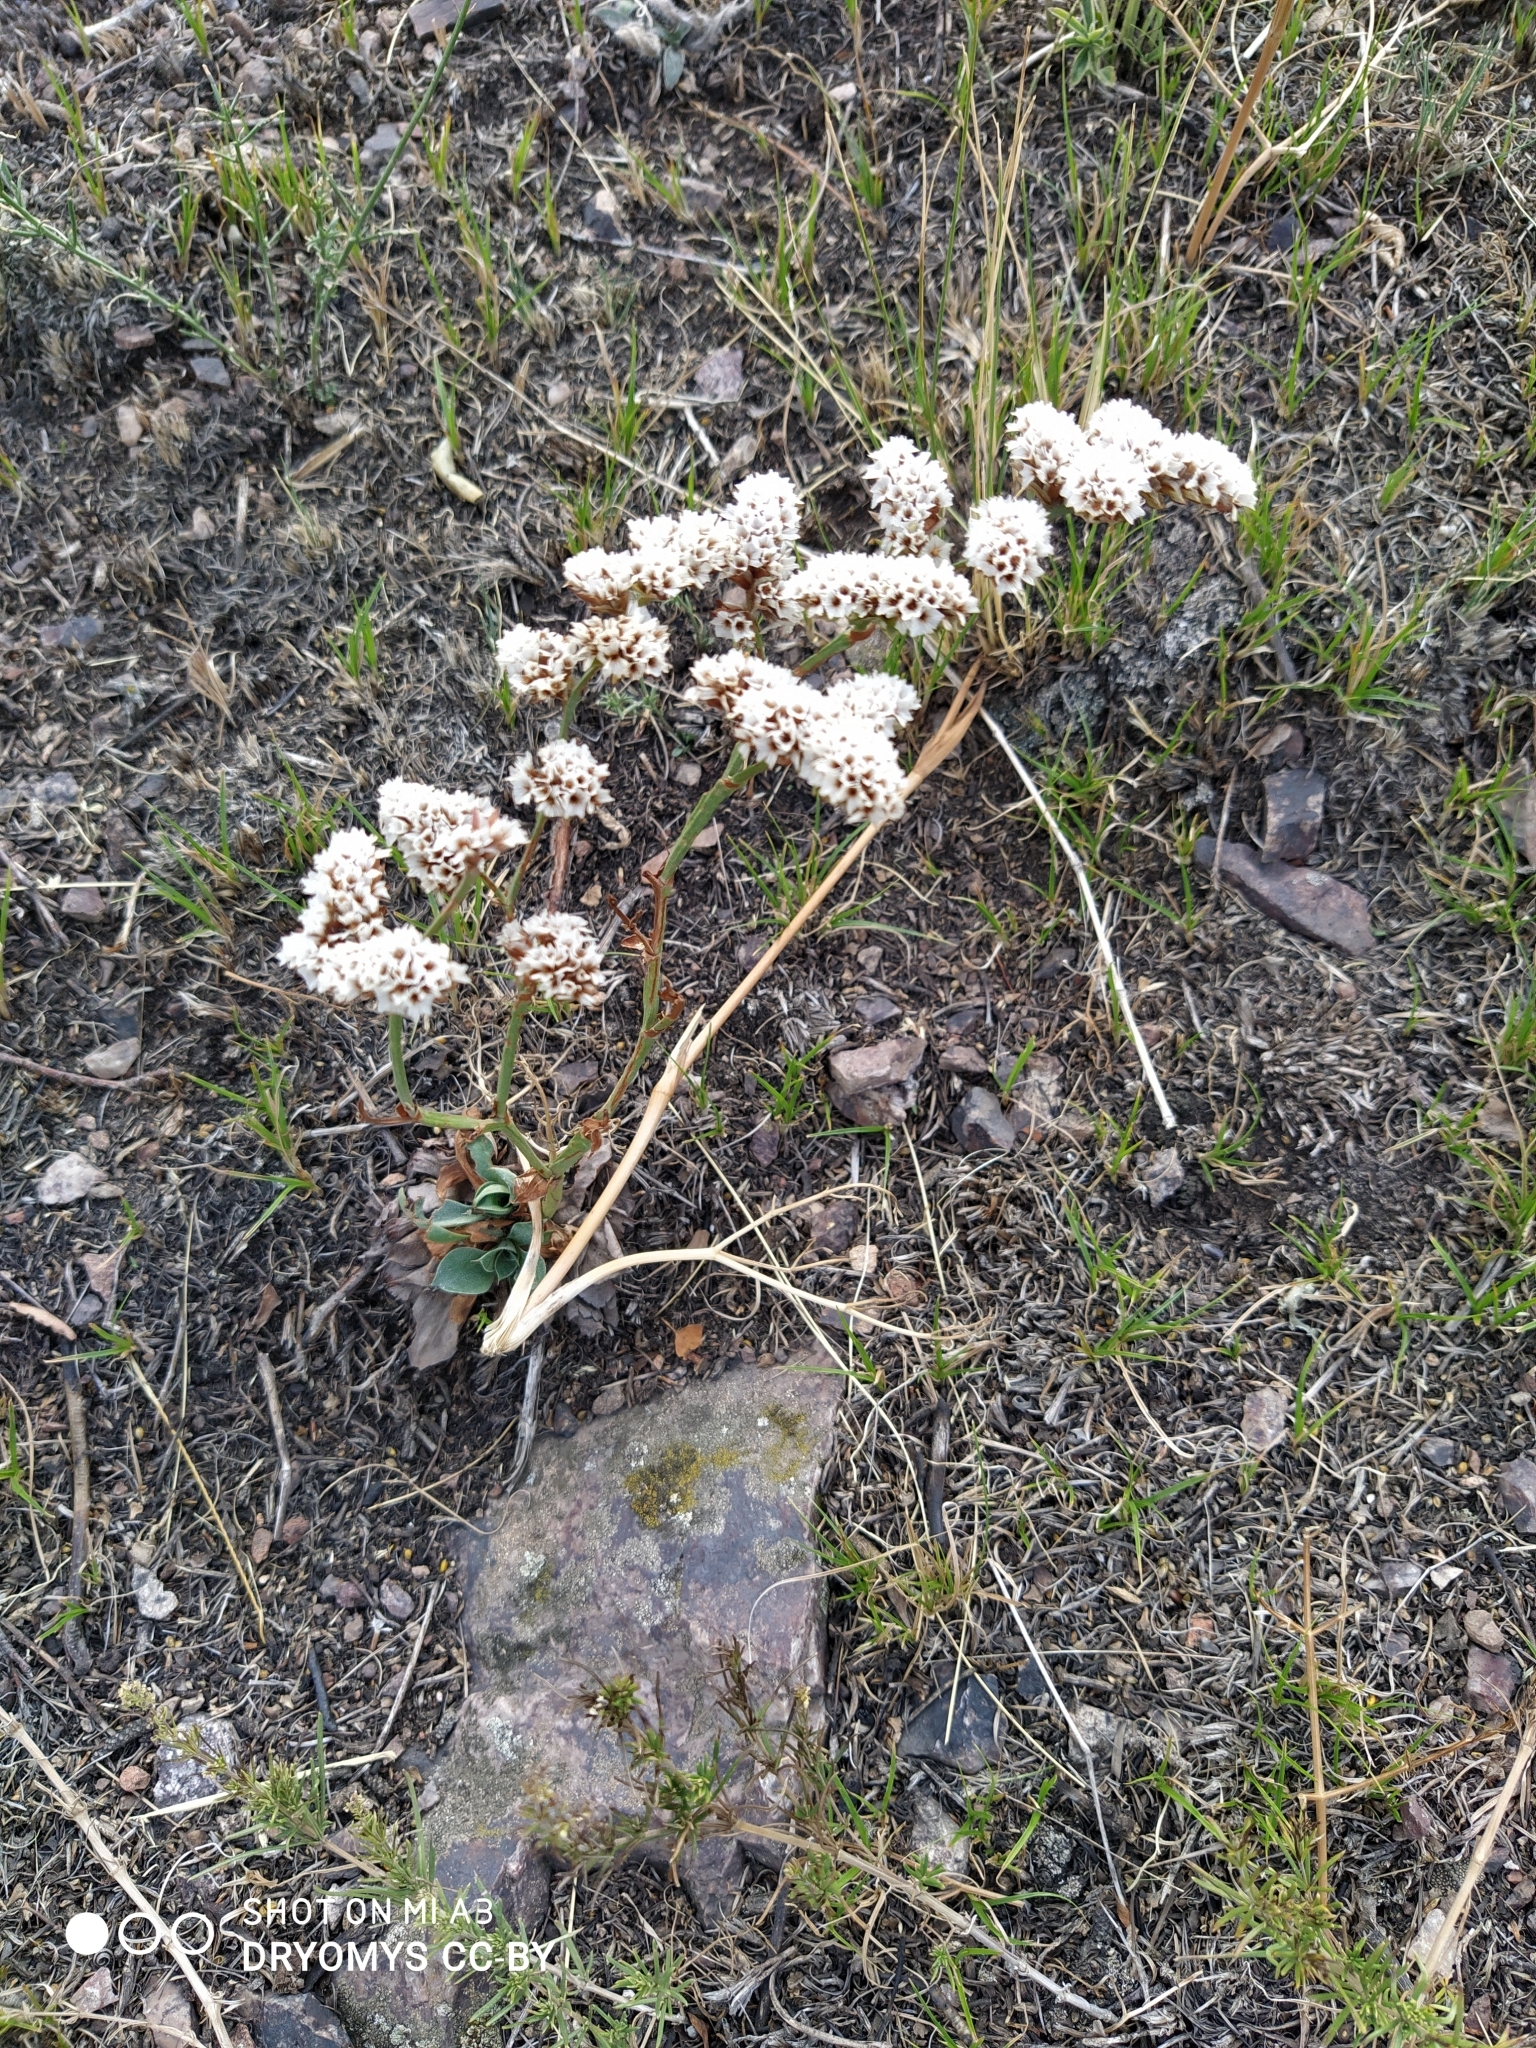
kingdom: Plantae
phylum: Tracheophyta
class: Magnoliopsida
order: Caryophyllales
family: Plumbaginaceae
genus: Goniolimon
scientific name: Goniolimon speciosum
